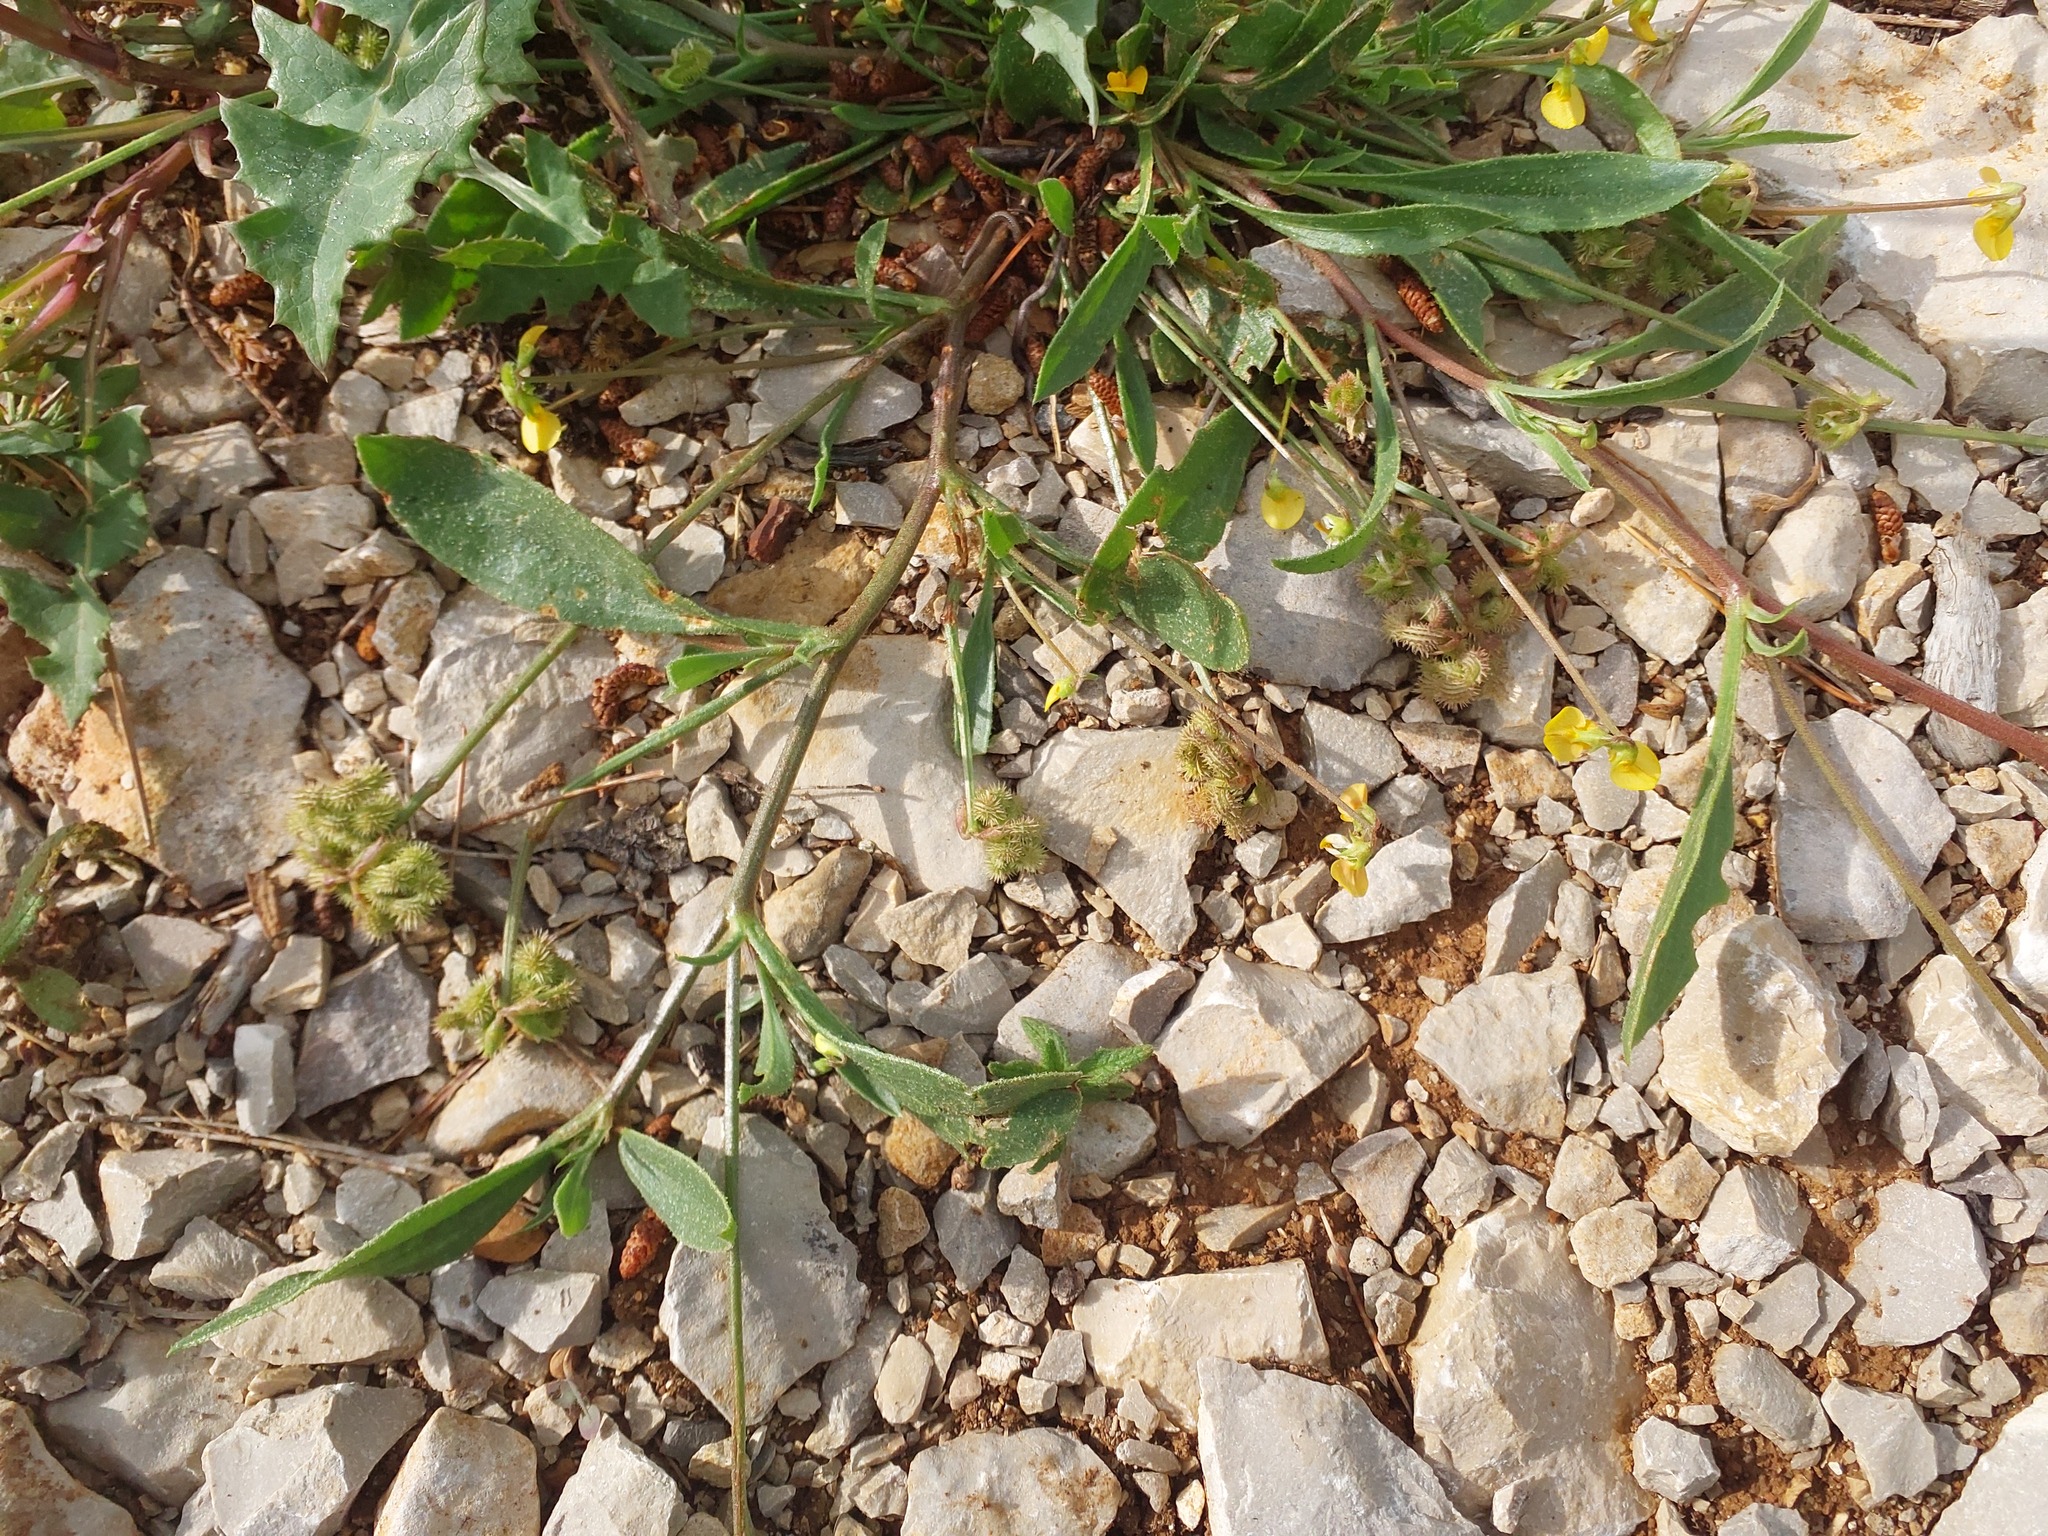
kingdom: Plantae
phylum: Tracheophyta
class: Magnoliopsida
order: Fabales
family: Fabaceae
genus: Scorpiurus
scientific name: Scorpiurus muricatus
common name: Caterpillar-plant
